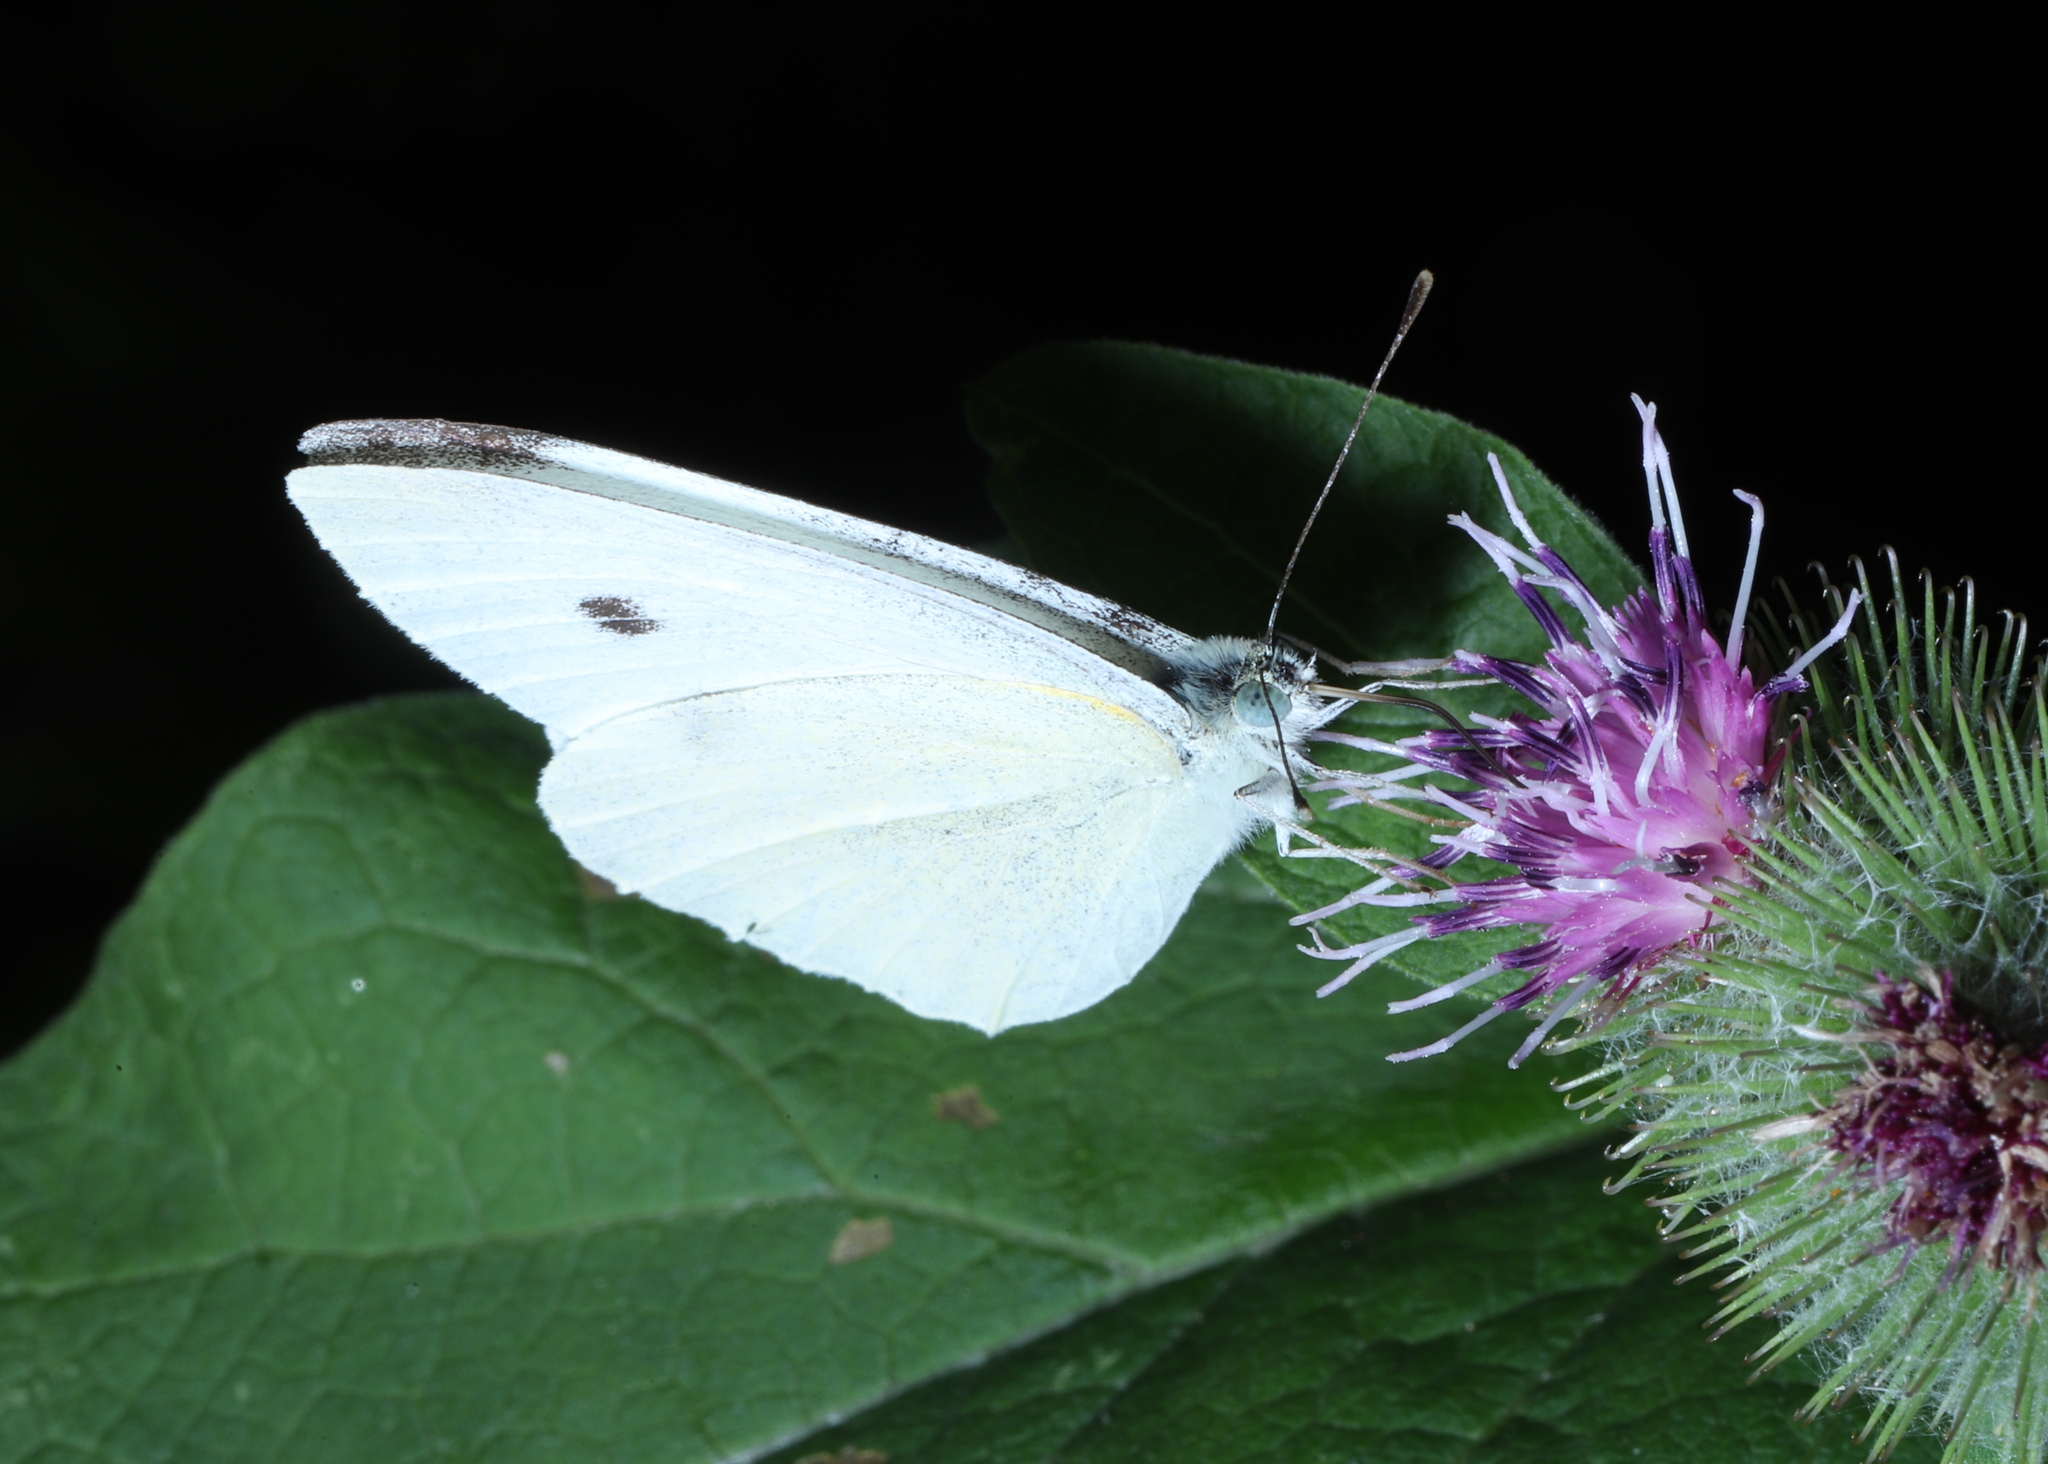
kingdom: Animalia
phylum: Arthropoda
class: Insecta
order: Lepidoptera
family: Pieridae
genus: Pieris
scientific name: Pieris rapae
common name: Small white
